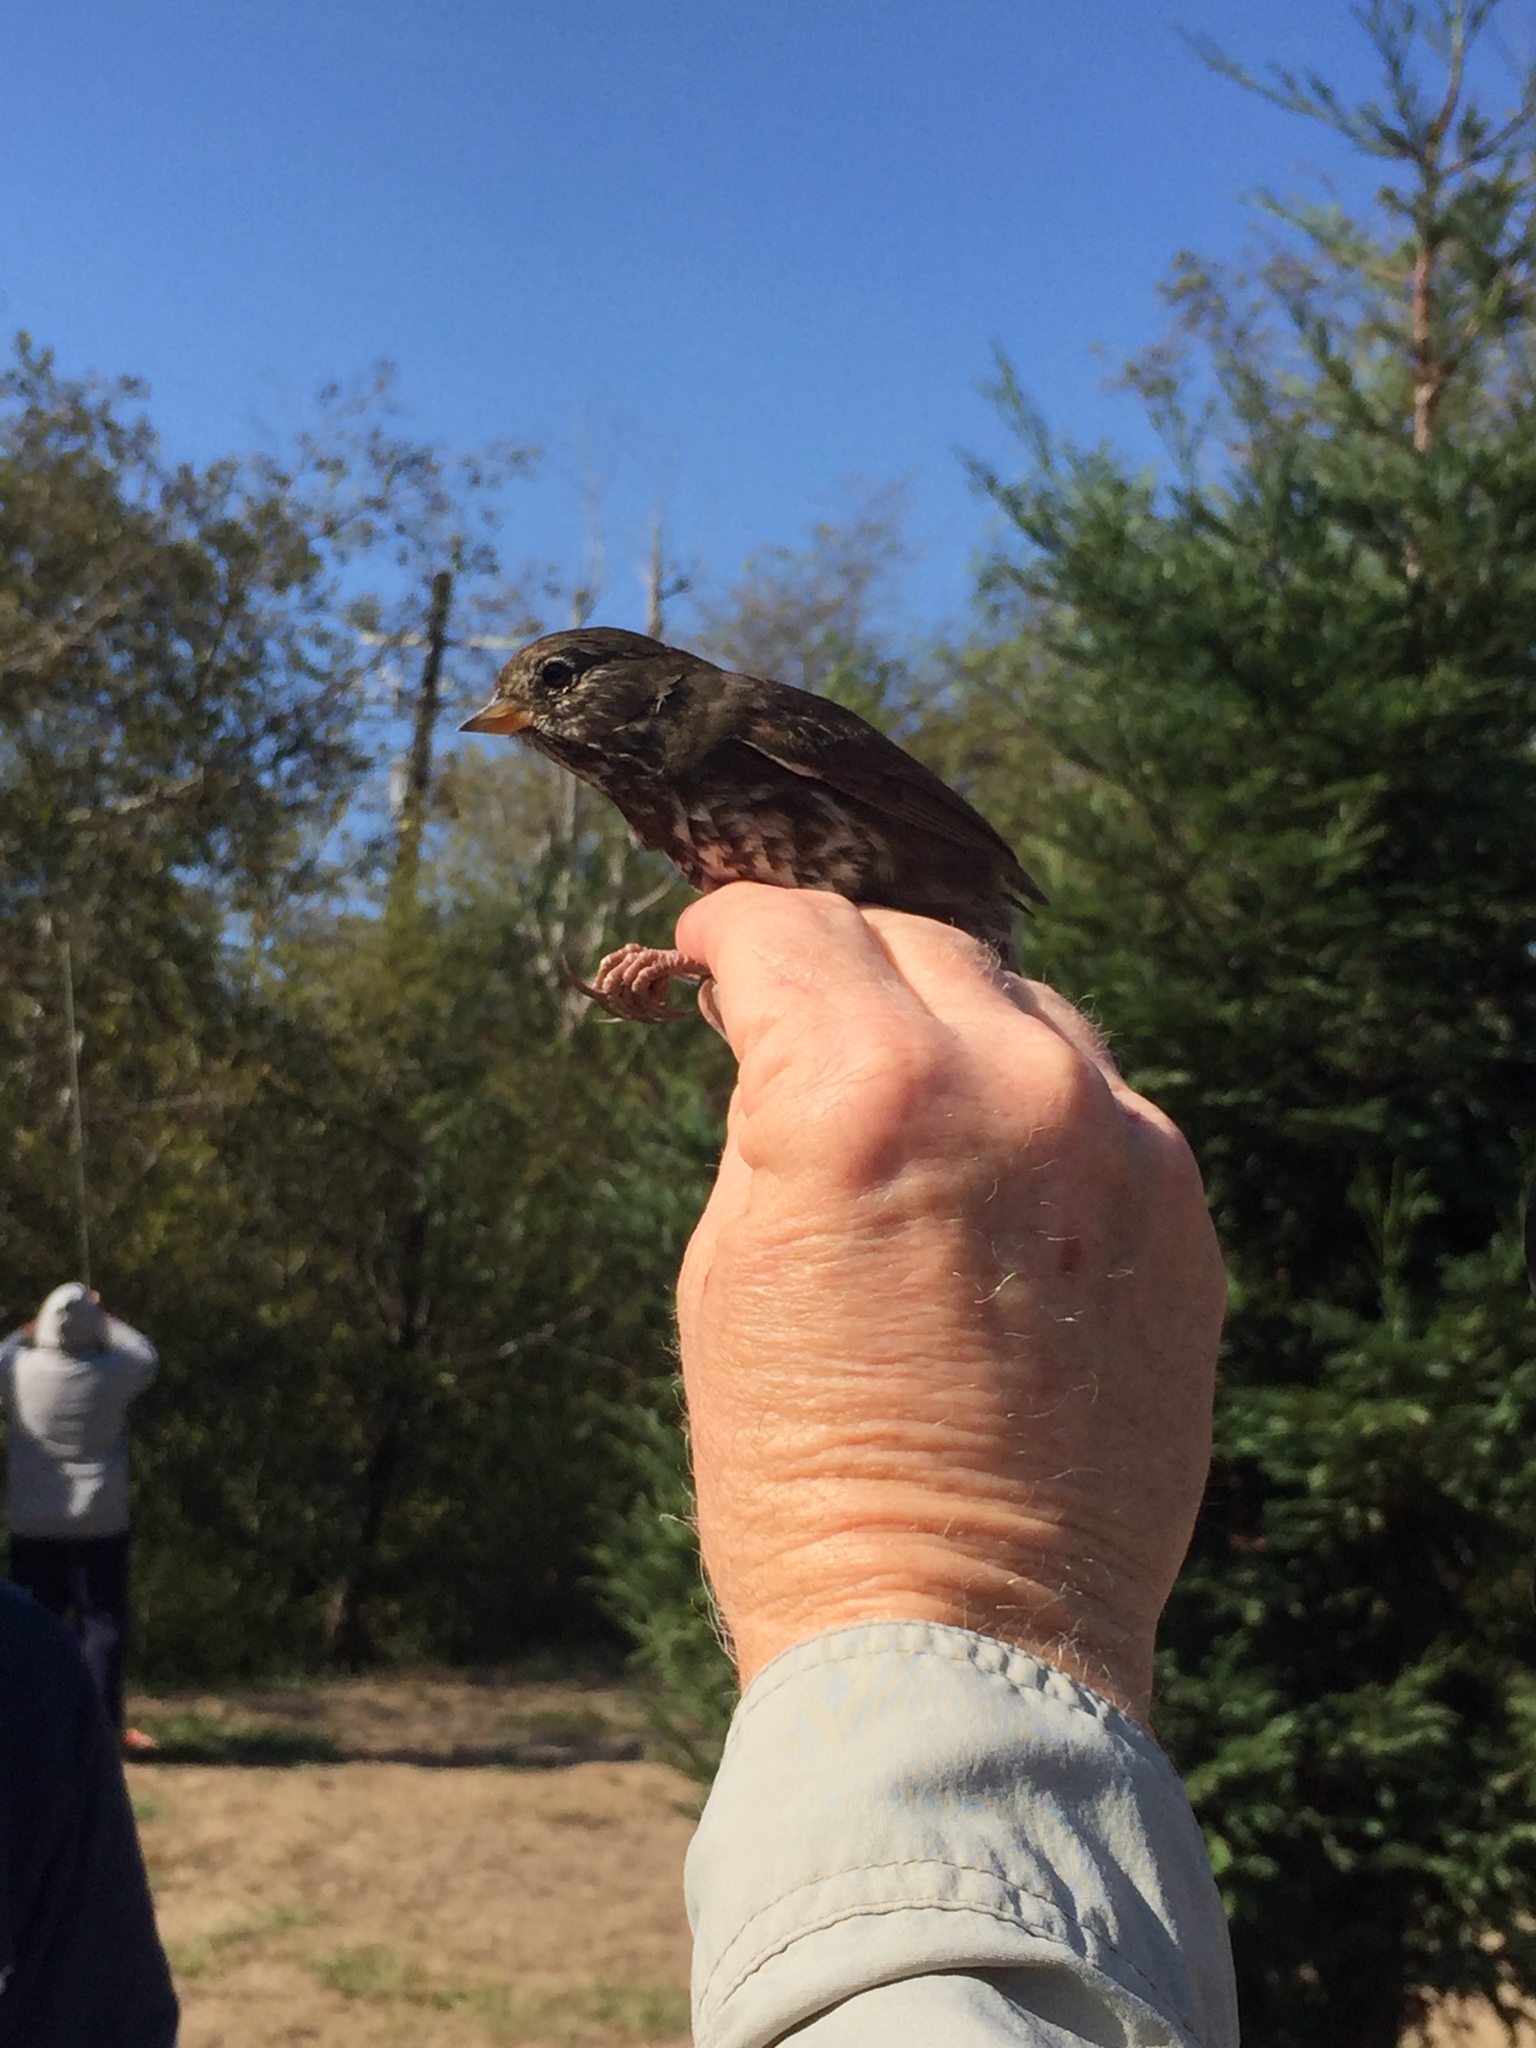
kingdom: Animalia
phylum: Chordata
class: Aves
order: Passeriformes
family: Passerellidae
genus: Passerella
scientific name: Passerella iliaca
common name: Fox sparrow
